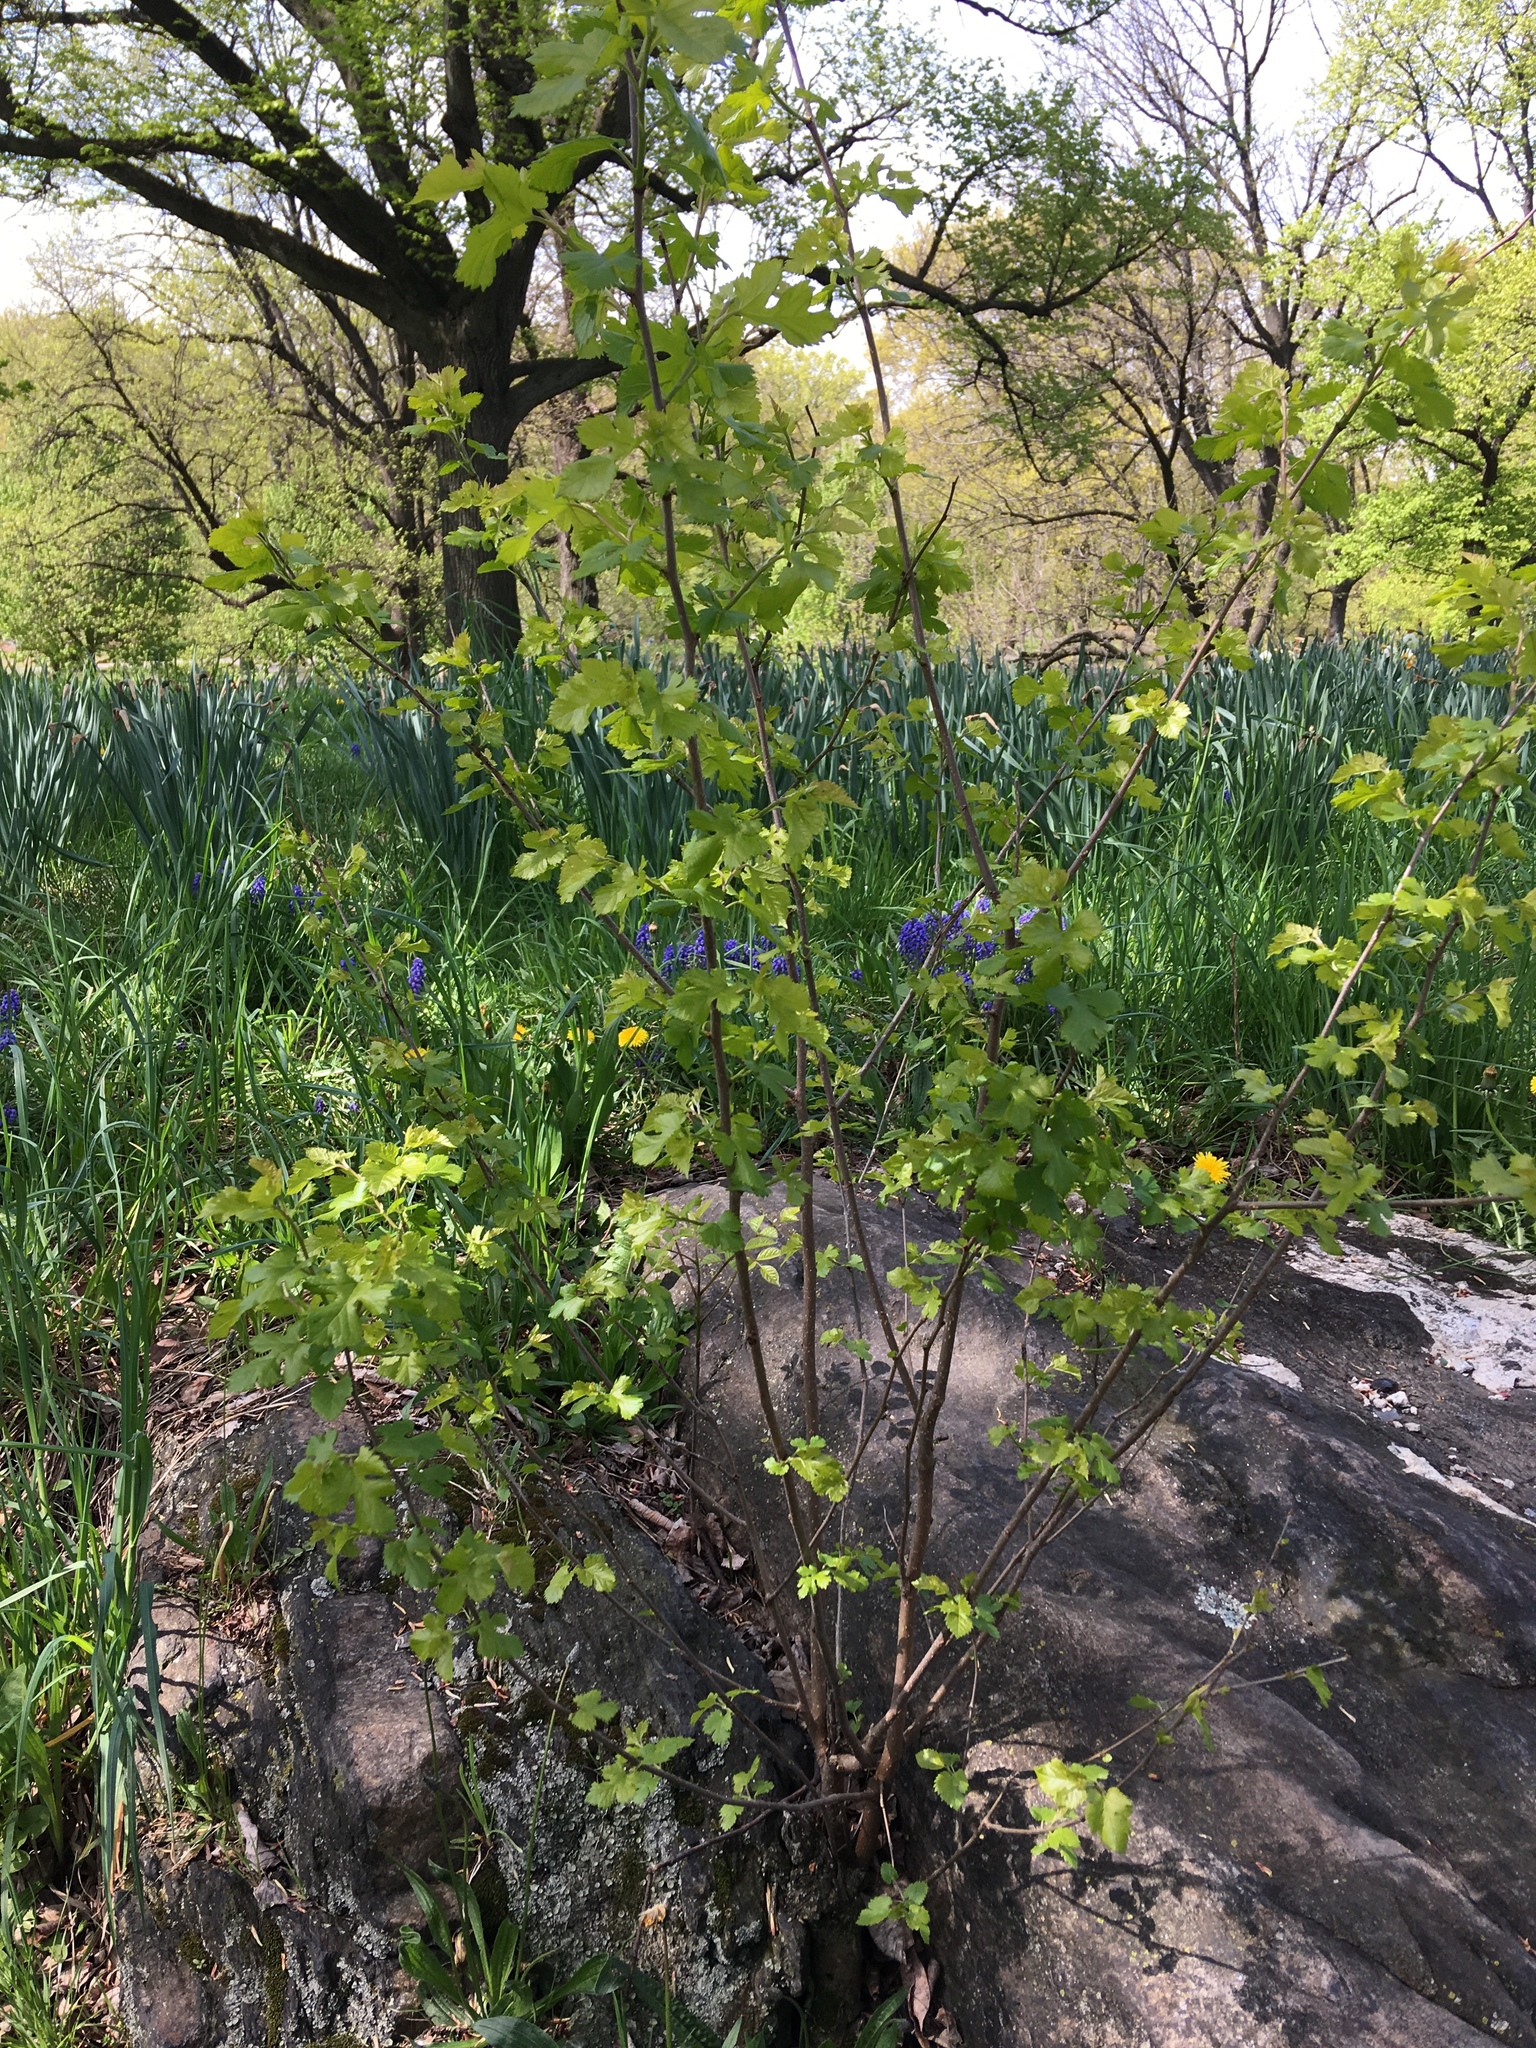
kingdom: Plantae
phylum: Tracheophyta
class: Magnoliopsida
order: Rosales
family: Moraceae
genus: Morus
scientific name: Morus alba
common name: White mulberry
